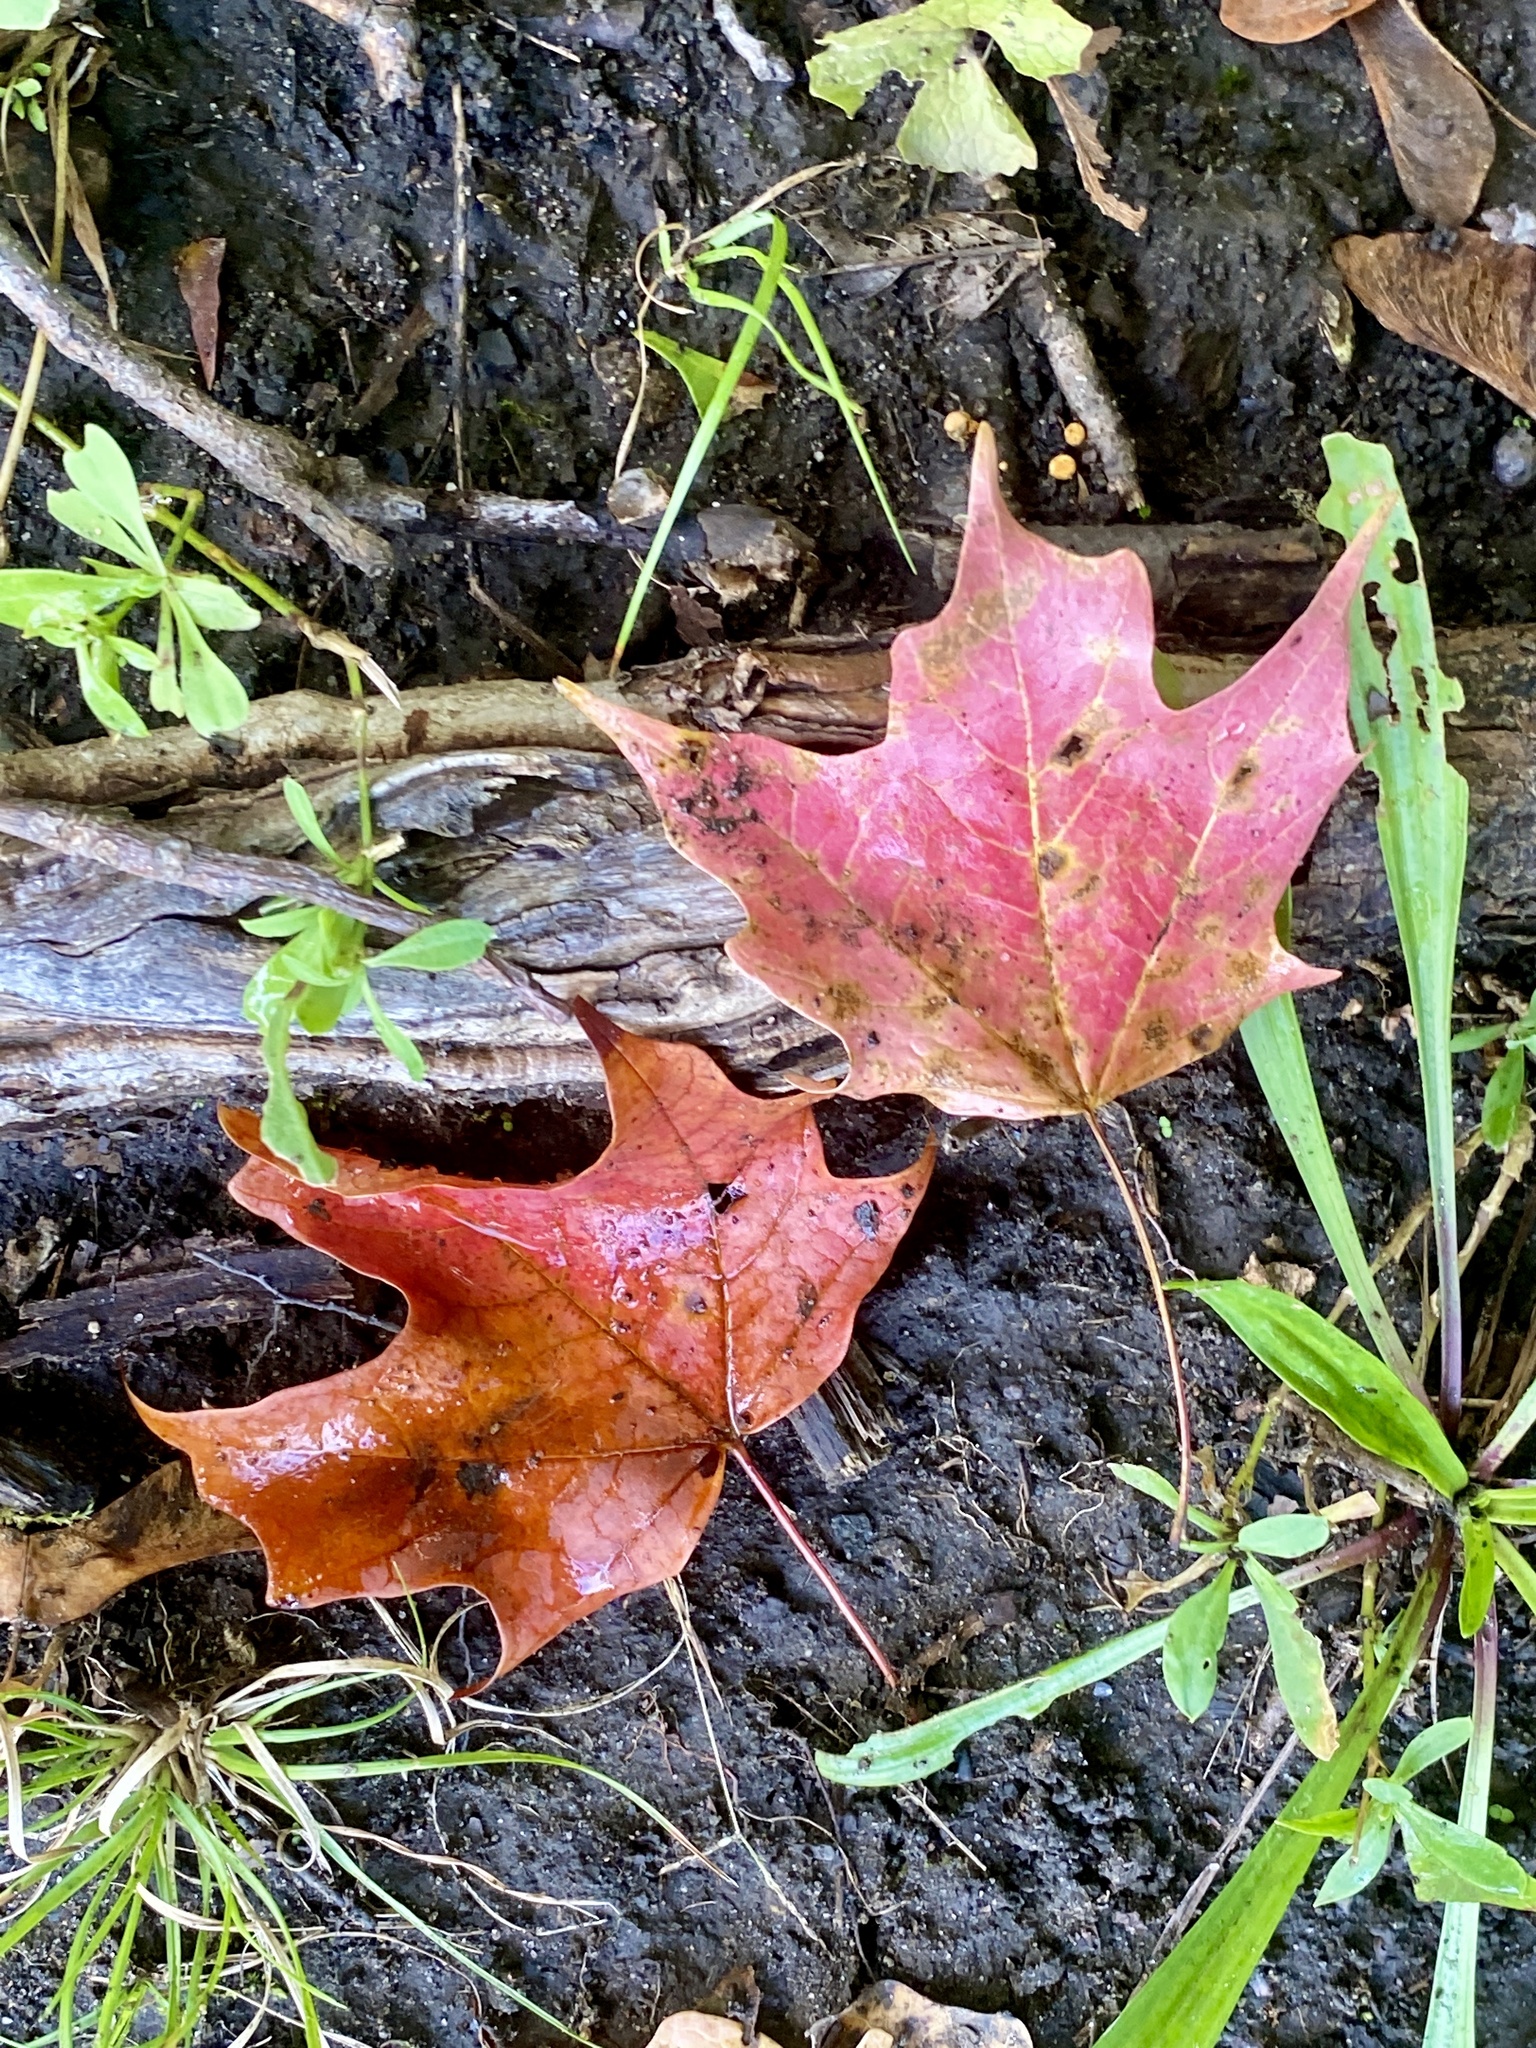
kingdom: Plantae
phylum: Tracheophyta
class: Magnoliopsida
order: Sapindales
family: Sapindaceae
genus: Acer
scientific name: Acer saccharum
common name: Sugar maple
